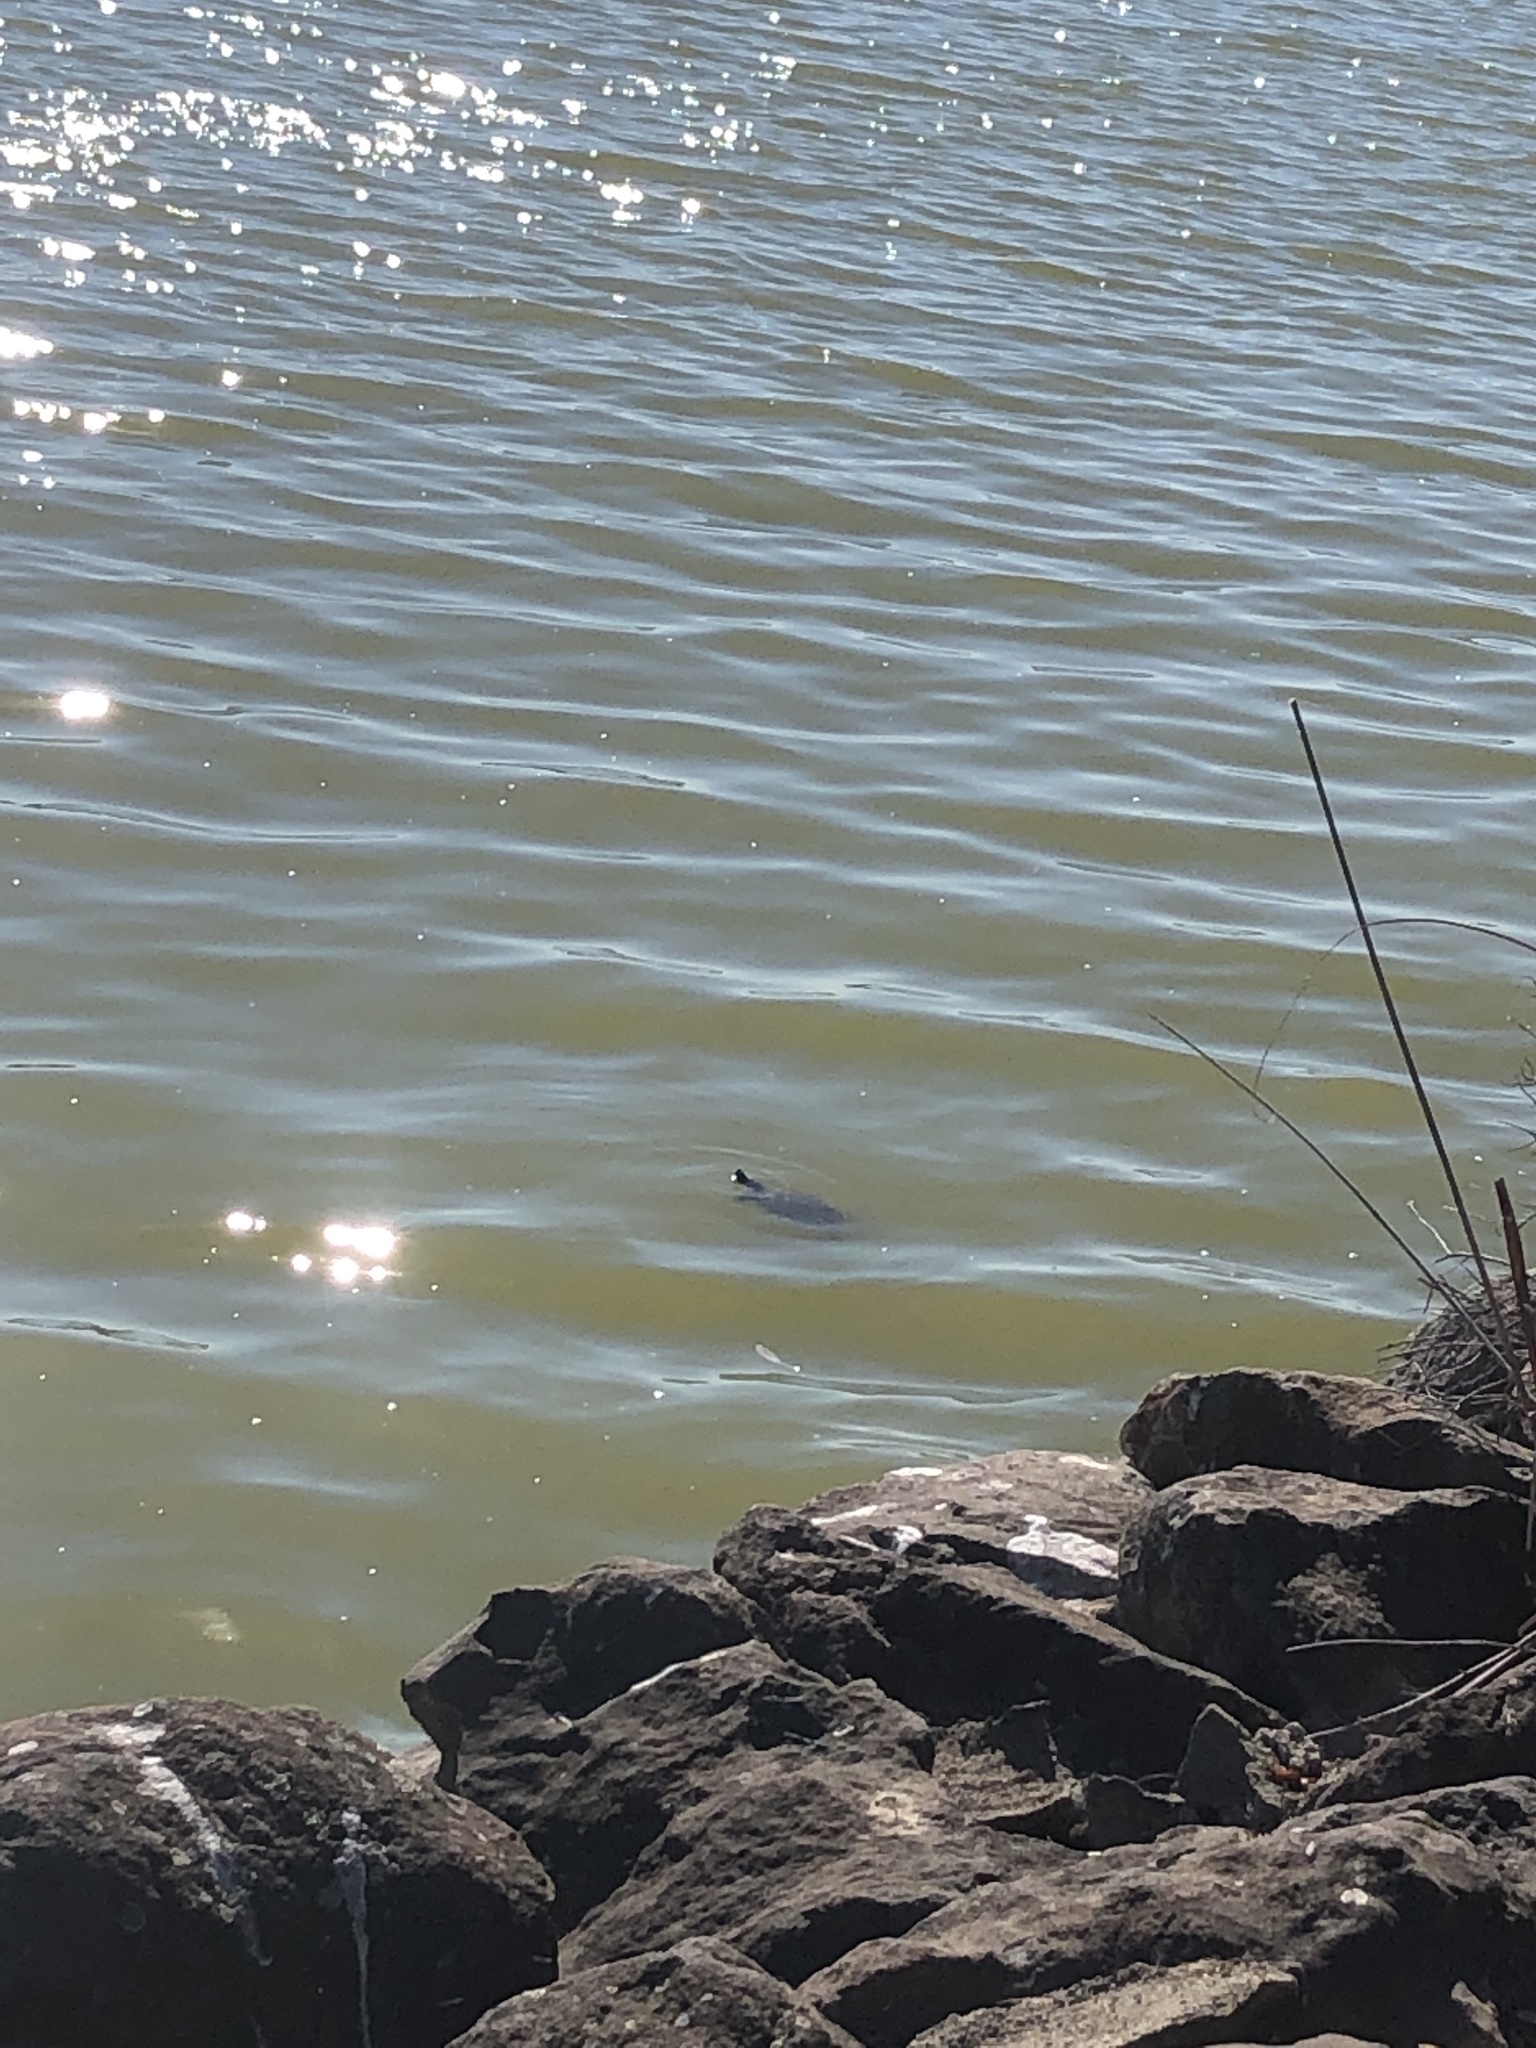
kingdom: Animalia
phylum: Chordata
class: Testudines
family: Emydidae
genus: Trachemys
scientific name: Trachemys scripta
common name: Slider
